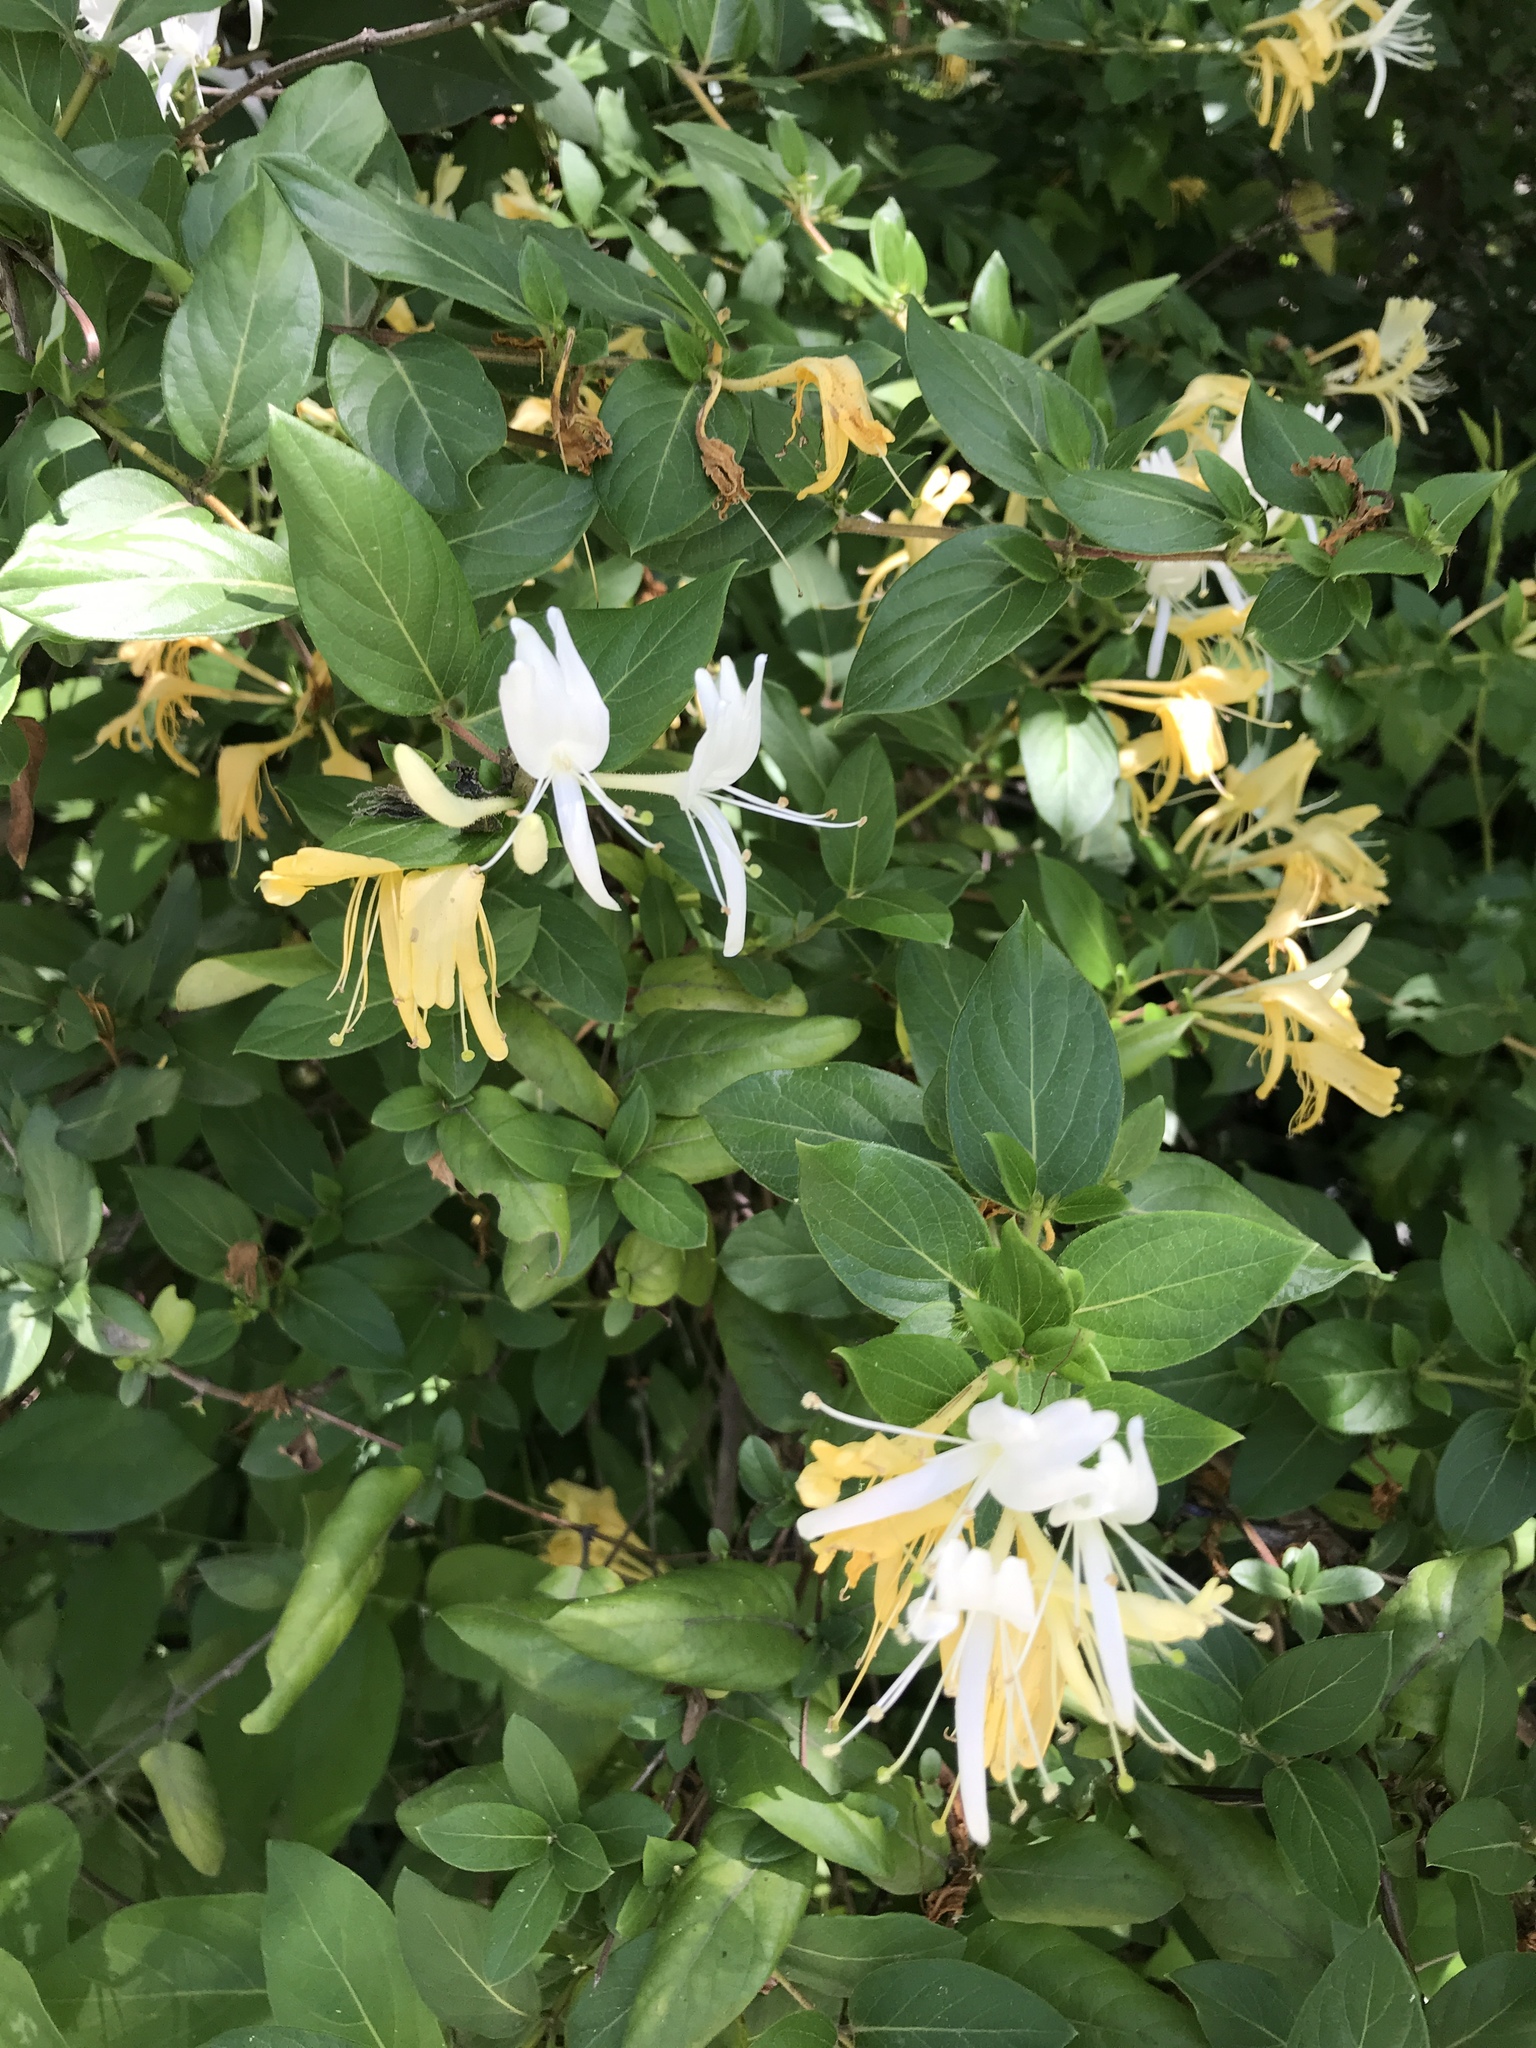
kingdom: Plantae
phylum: Tracheophyta
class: Magnoliopsida
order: Dipsacales
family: Caprifoliaceae
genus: Lonicera
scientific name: Lonicera japonica
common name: Japanese honeysuckle
